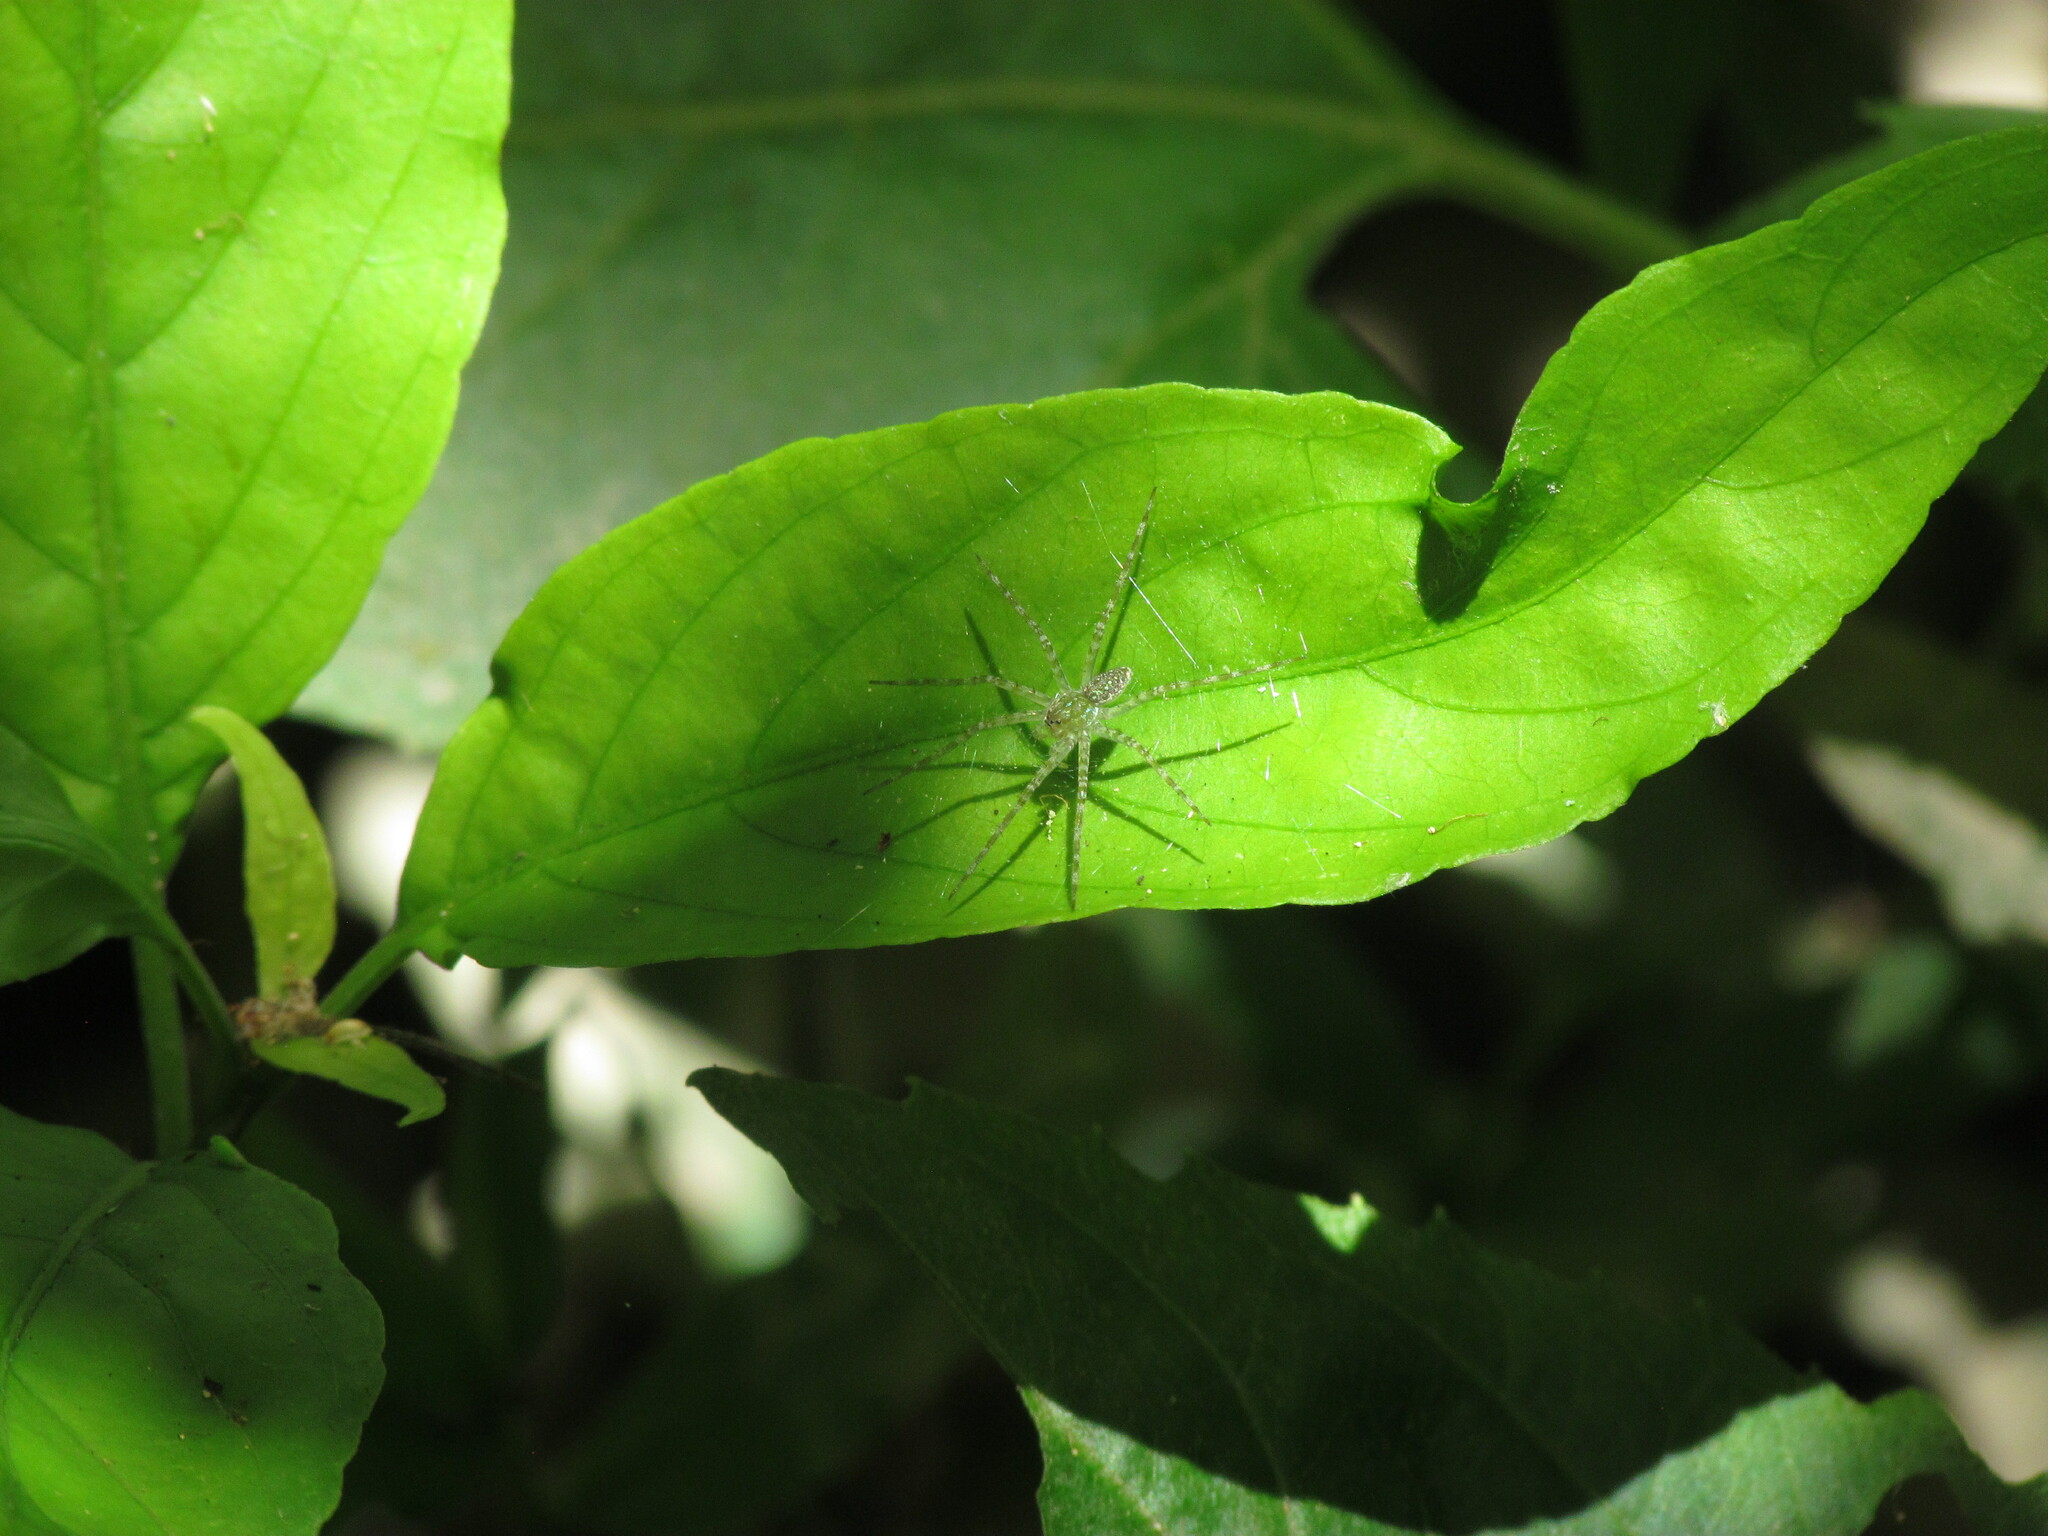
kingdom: Animalia
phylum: Arthropoda
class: Arachnida
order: Araneae
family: Pisauridae
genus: Thaumasia
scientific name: Thaumasia velox
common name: Nursery web spiders
